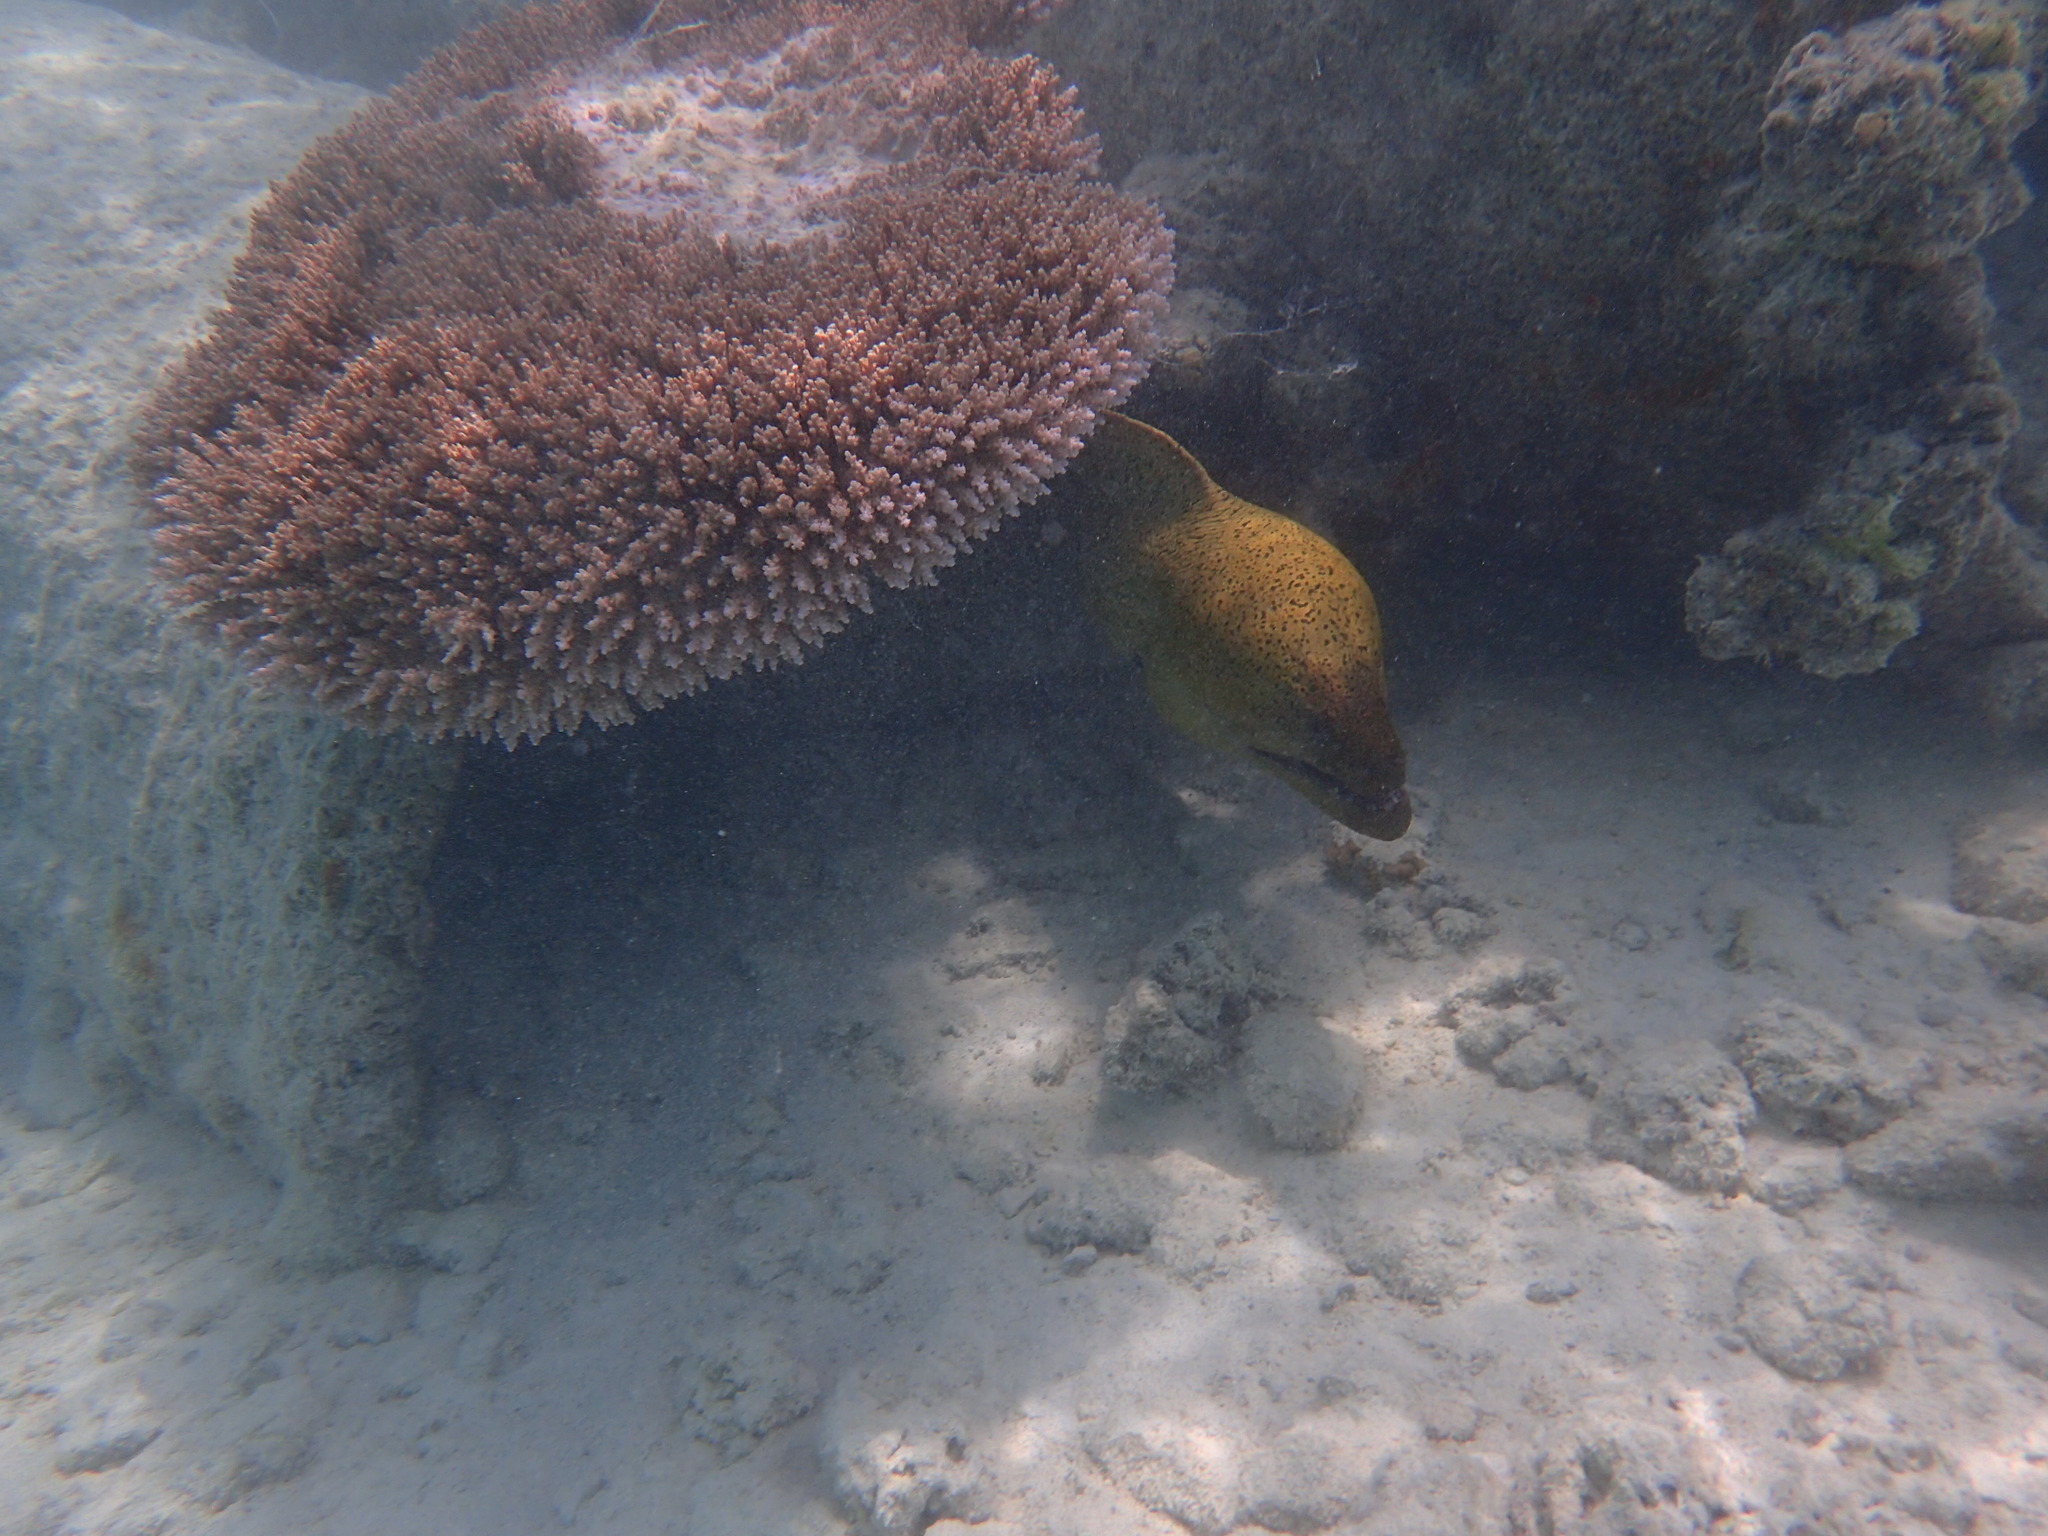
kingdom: Animalia
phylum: Chordata
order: Anguilliformes
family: Muraenidae
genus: Gymnothorax
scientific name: Gymnothorax javanicus
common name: Giant moray
